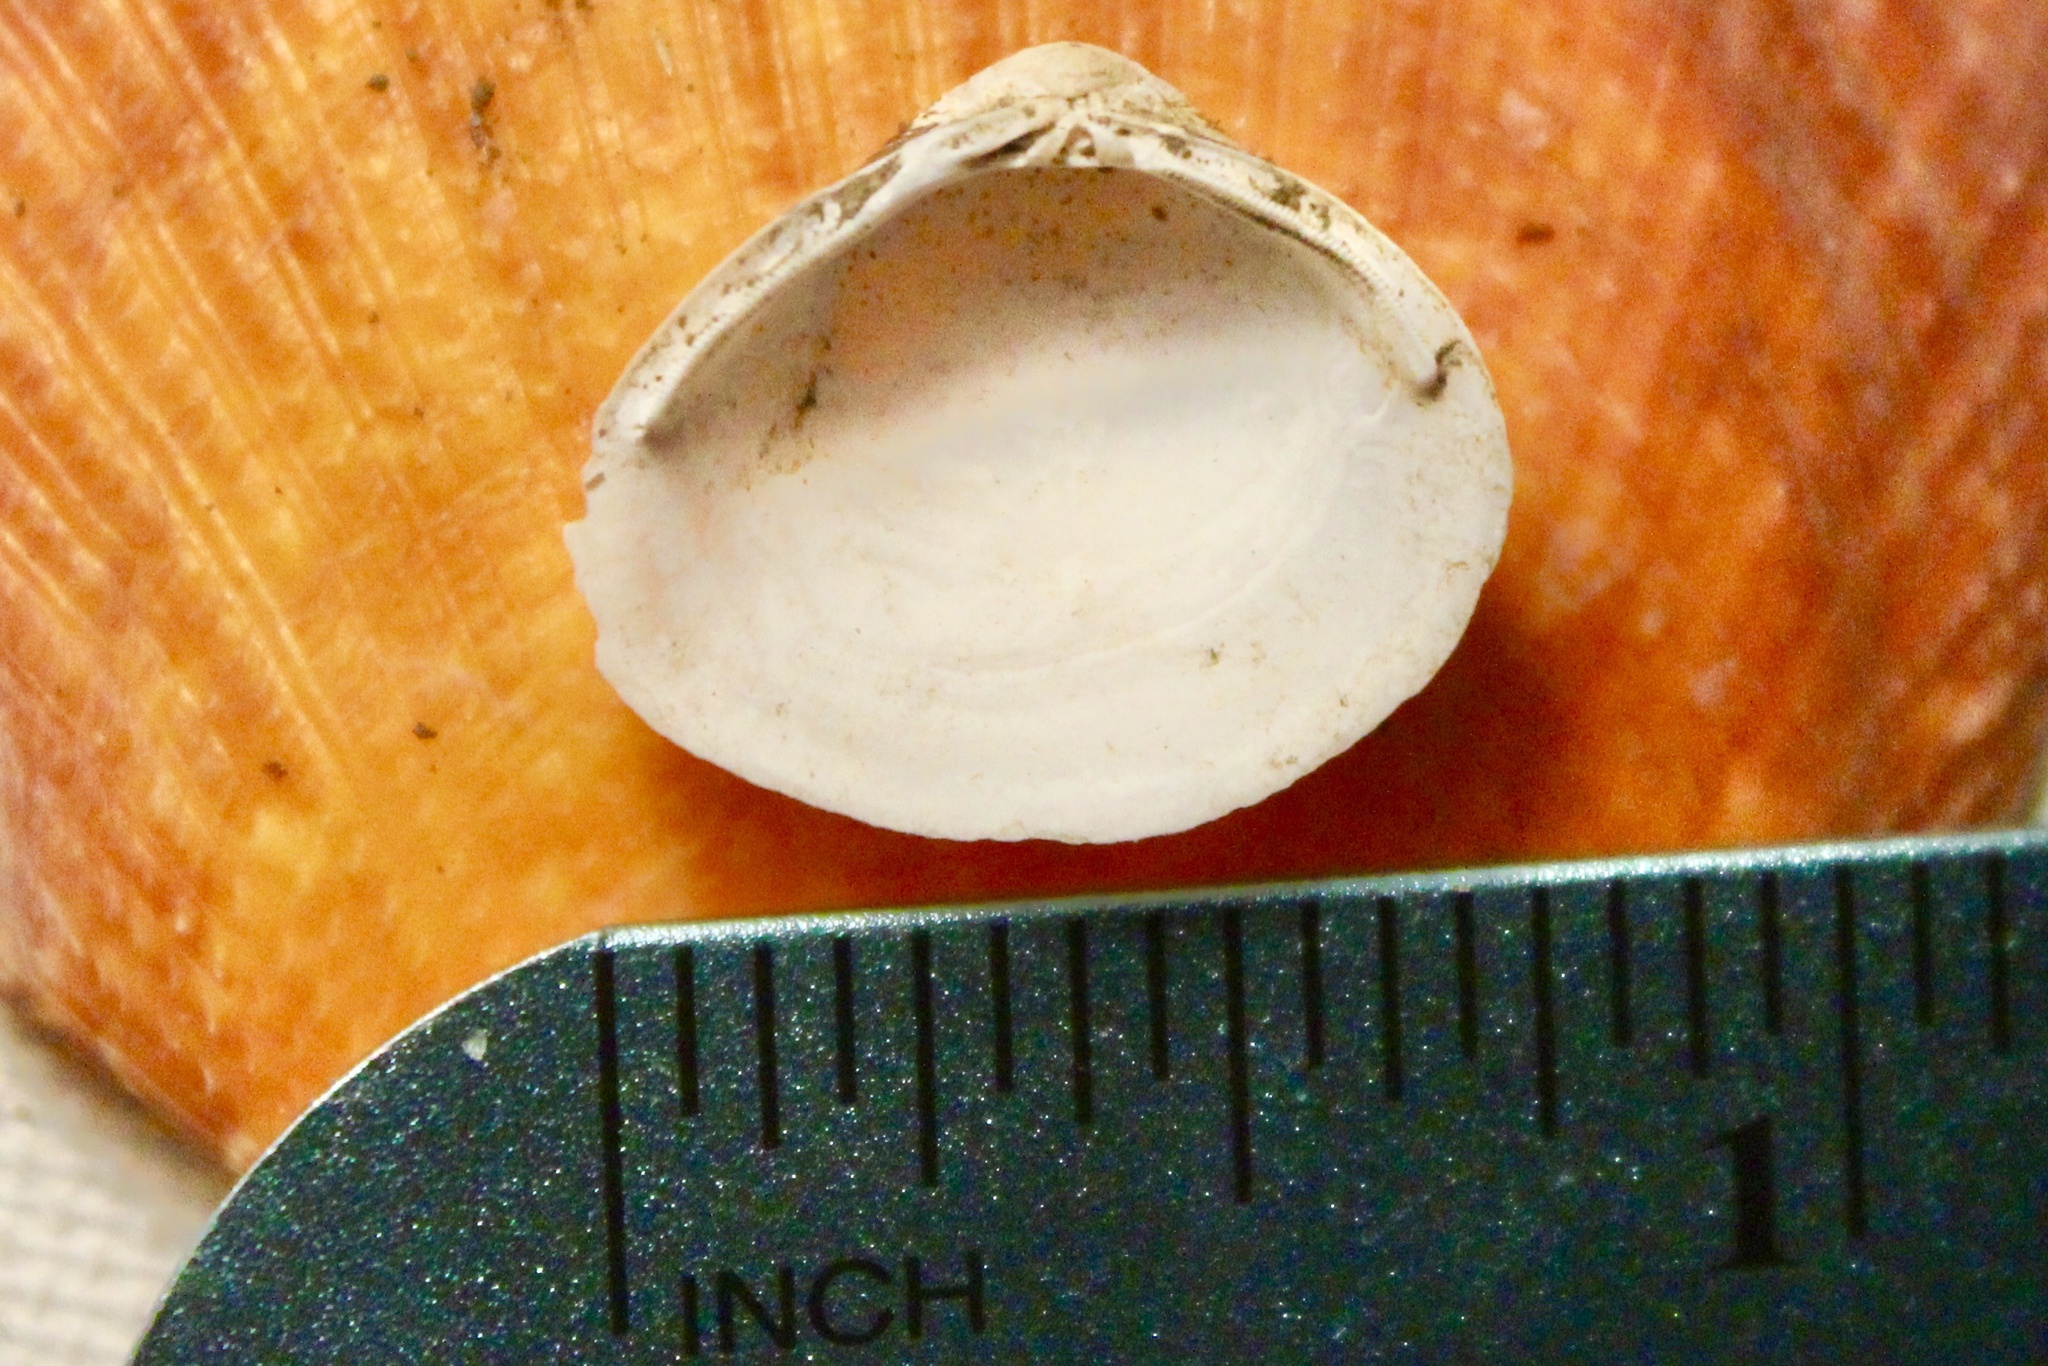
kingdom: Animalia
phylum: Mollusca
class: Bivalvia
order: Venerida
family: Cyrenidae
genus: Corbicula
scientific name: Corbicula fluminea
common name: Asian clam
